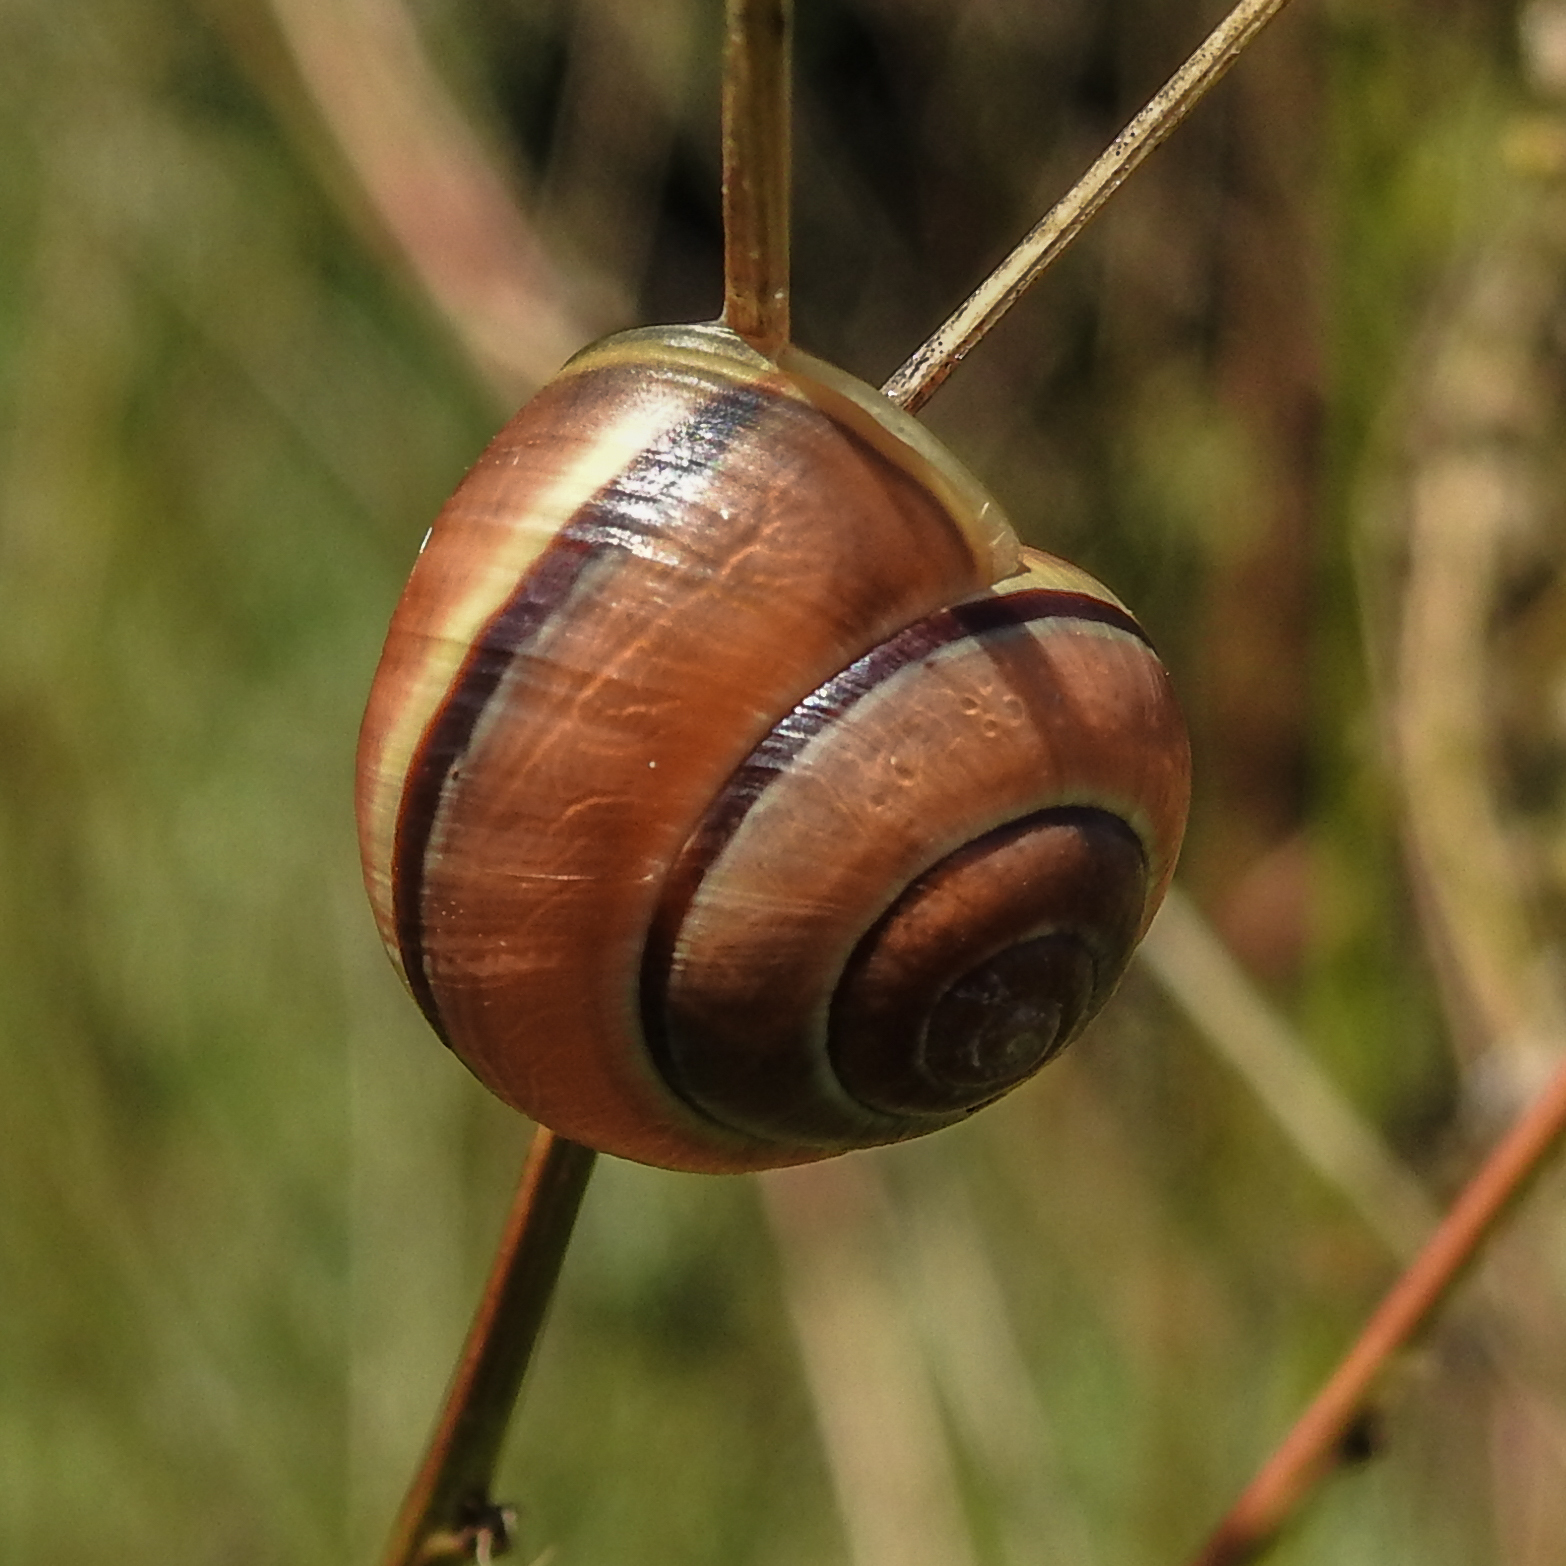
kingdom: Animalia
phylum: Mollusca
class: Gastropoda
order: Stylommatophora
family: Helicidae
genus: Cepaea
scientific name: Cepaea nemoralis
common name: Grovesnail
